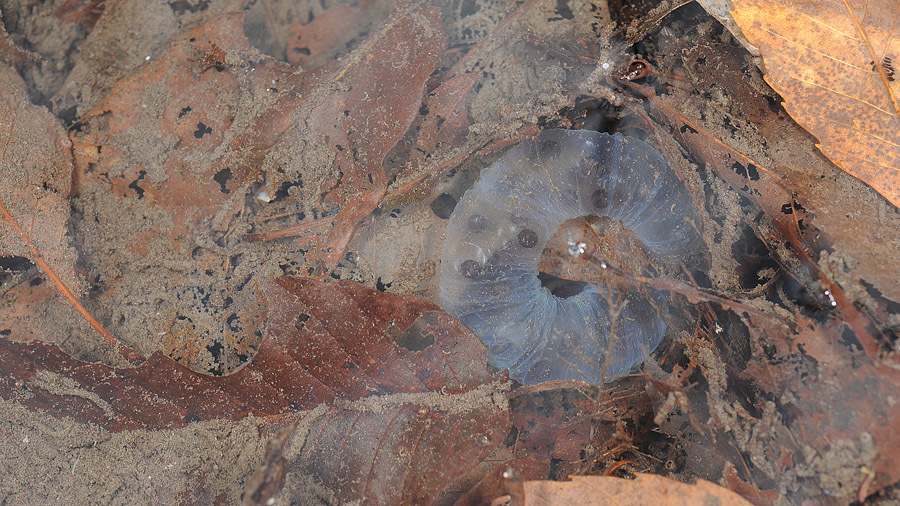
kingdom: Animalia
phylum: Chordata
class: Amphibia
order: Caudata
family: Hynobiidae
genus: Hynobius
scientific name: Hynobius leechii
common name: Gensan salamander
